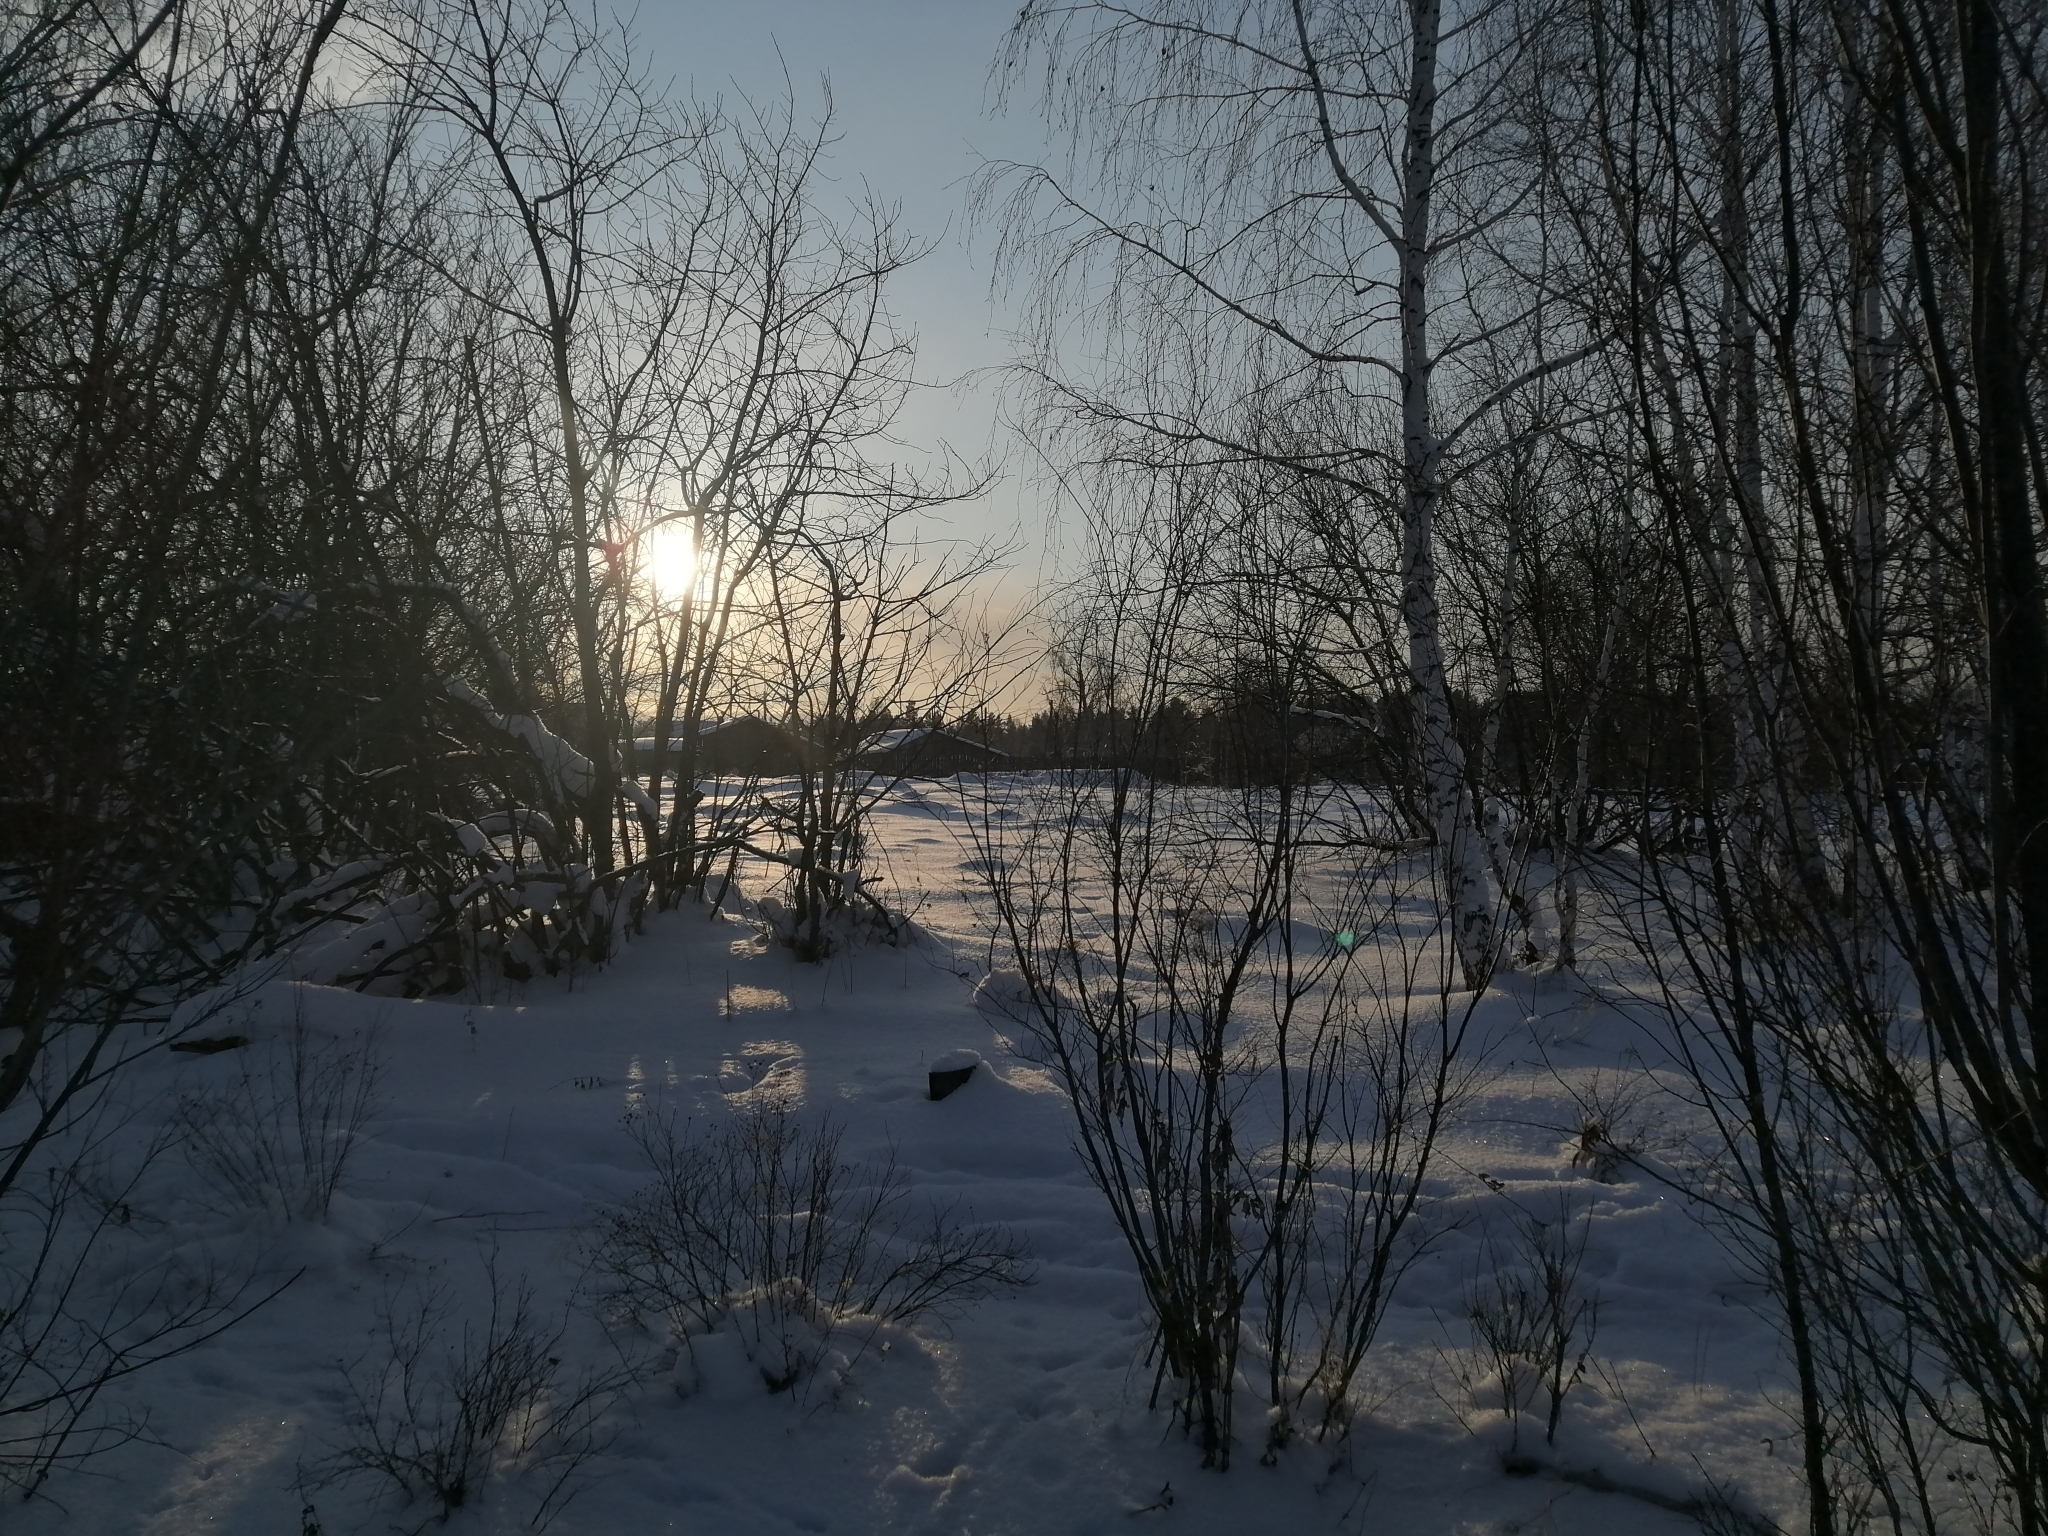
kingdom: Plantae
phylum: Tracheophyta
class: Magnoliopsida
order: Fagales
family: Betulaceae
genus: Betula
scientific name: Betula pendula
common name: Silver birch
